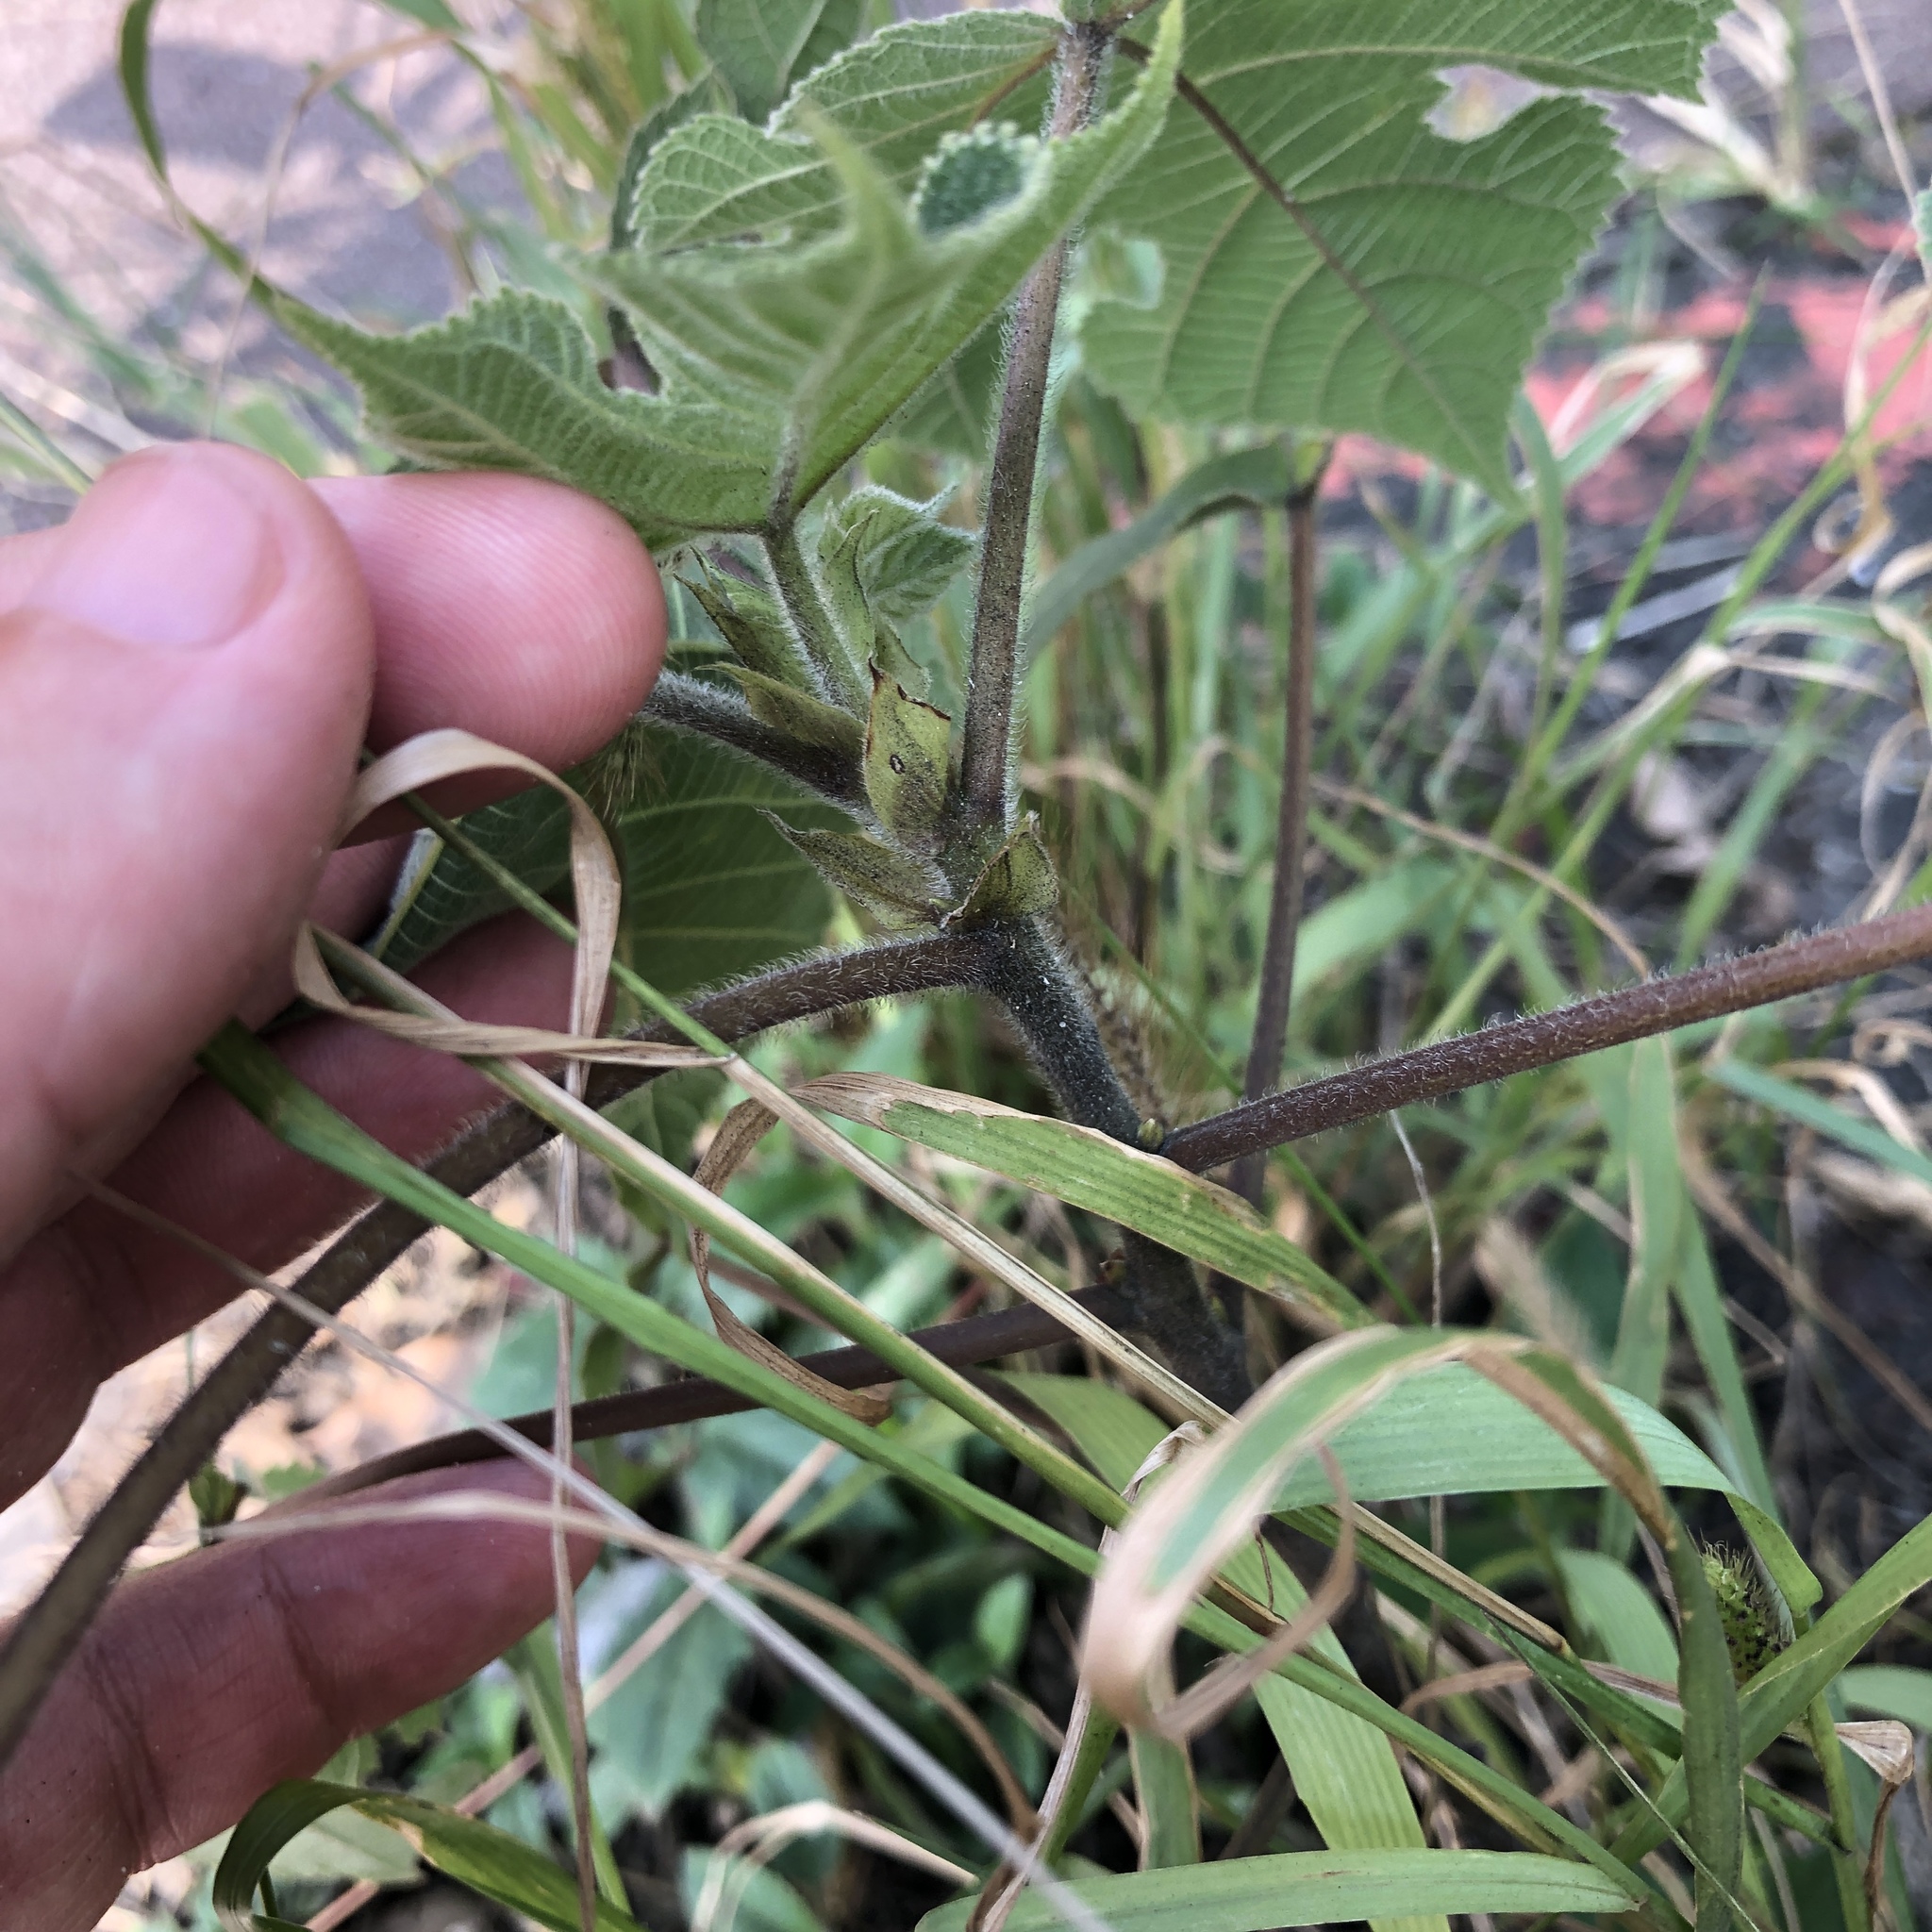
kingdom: Plantae
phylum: Tracheophyta
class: Magnoliopsida
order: Rosales
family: Moraceae
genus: Broussonetia
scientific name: Broussonetia papyrifera
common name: Paper mulberry
